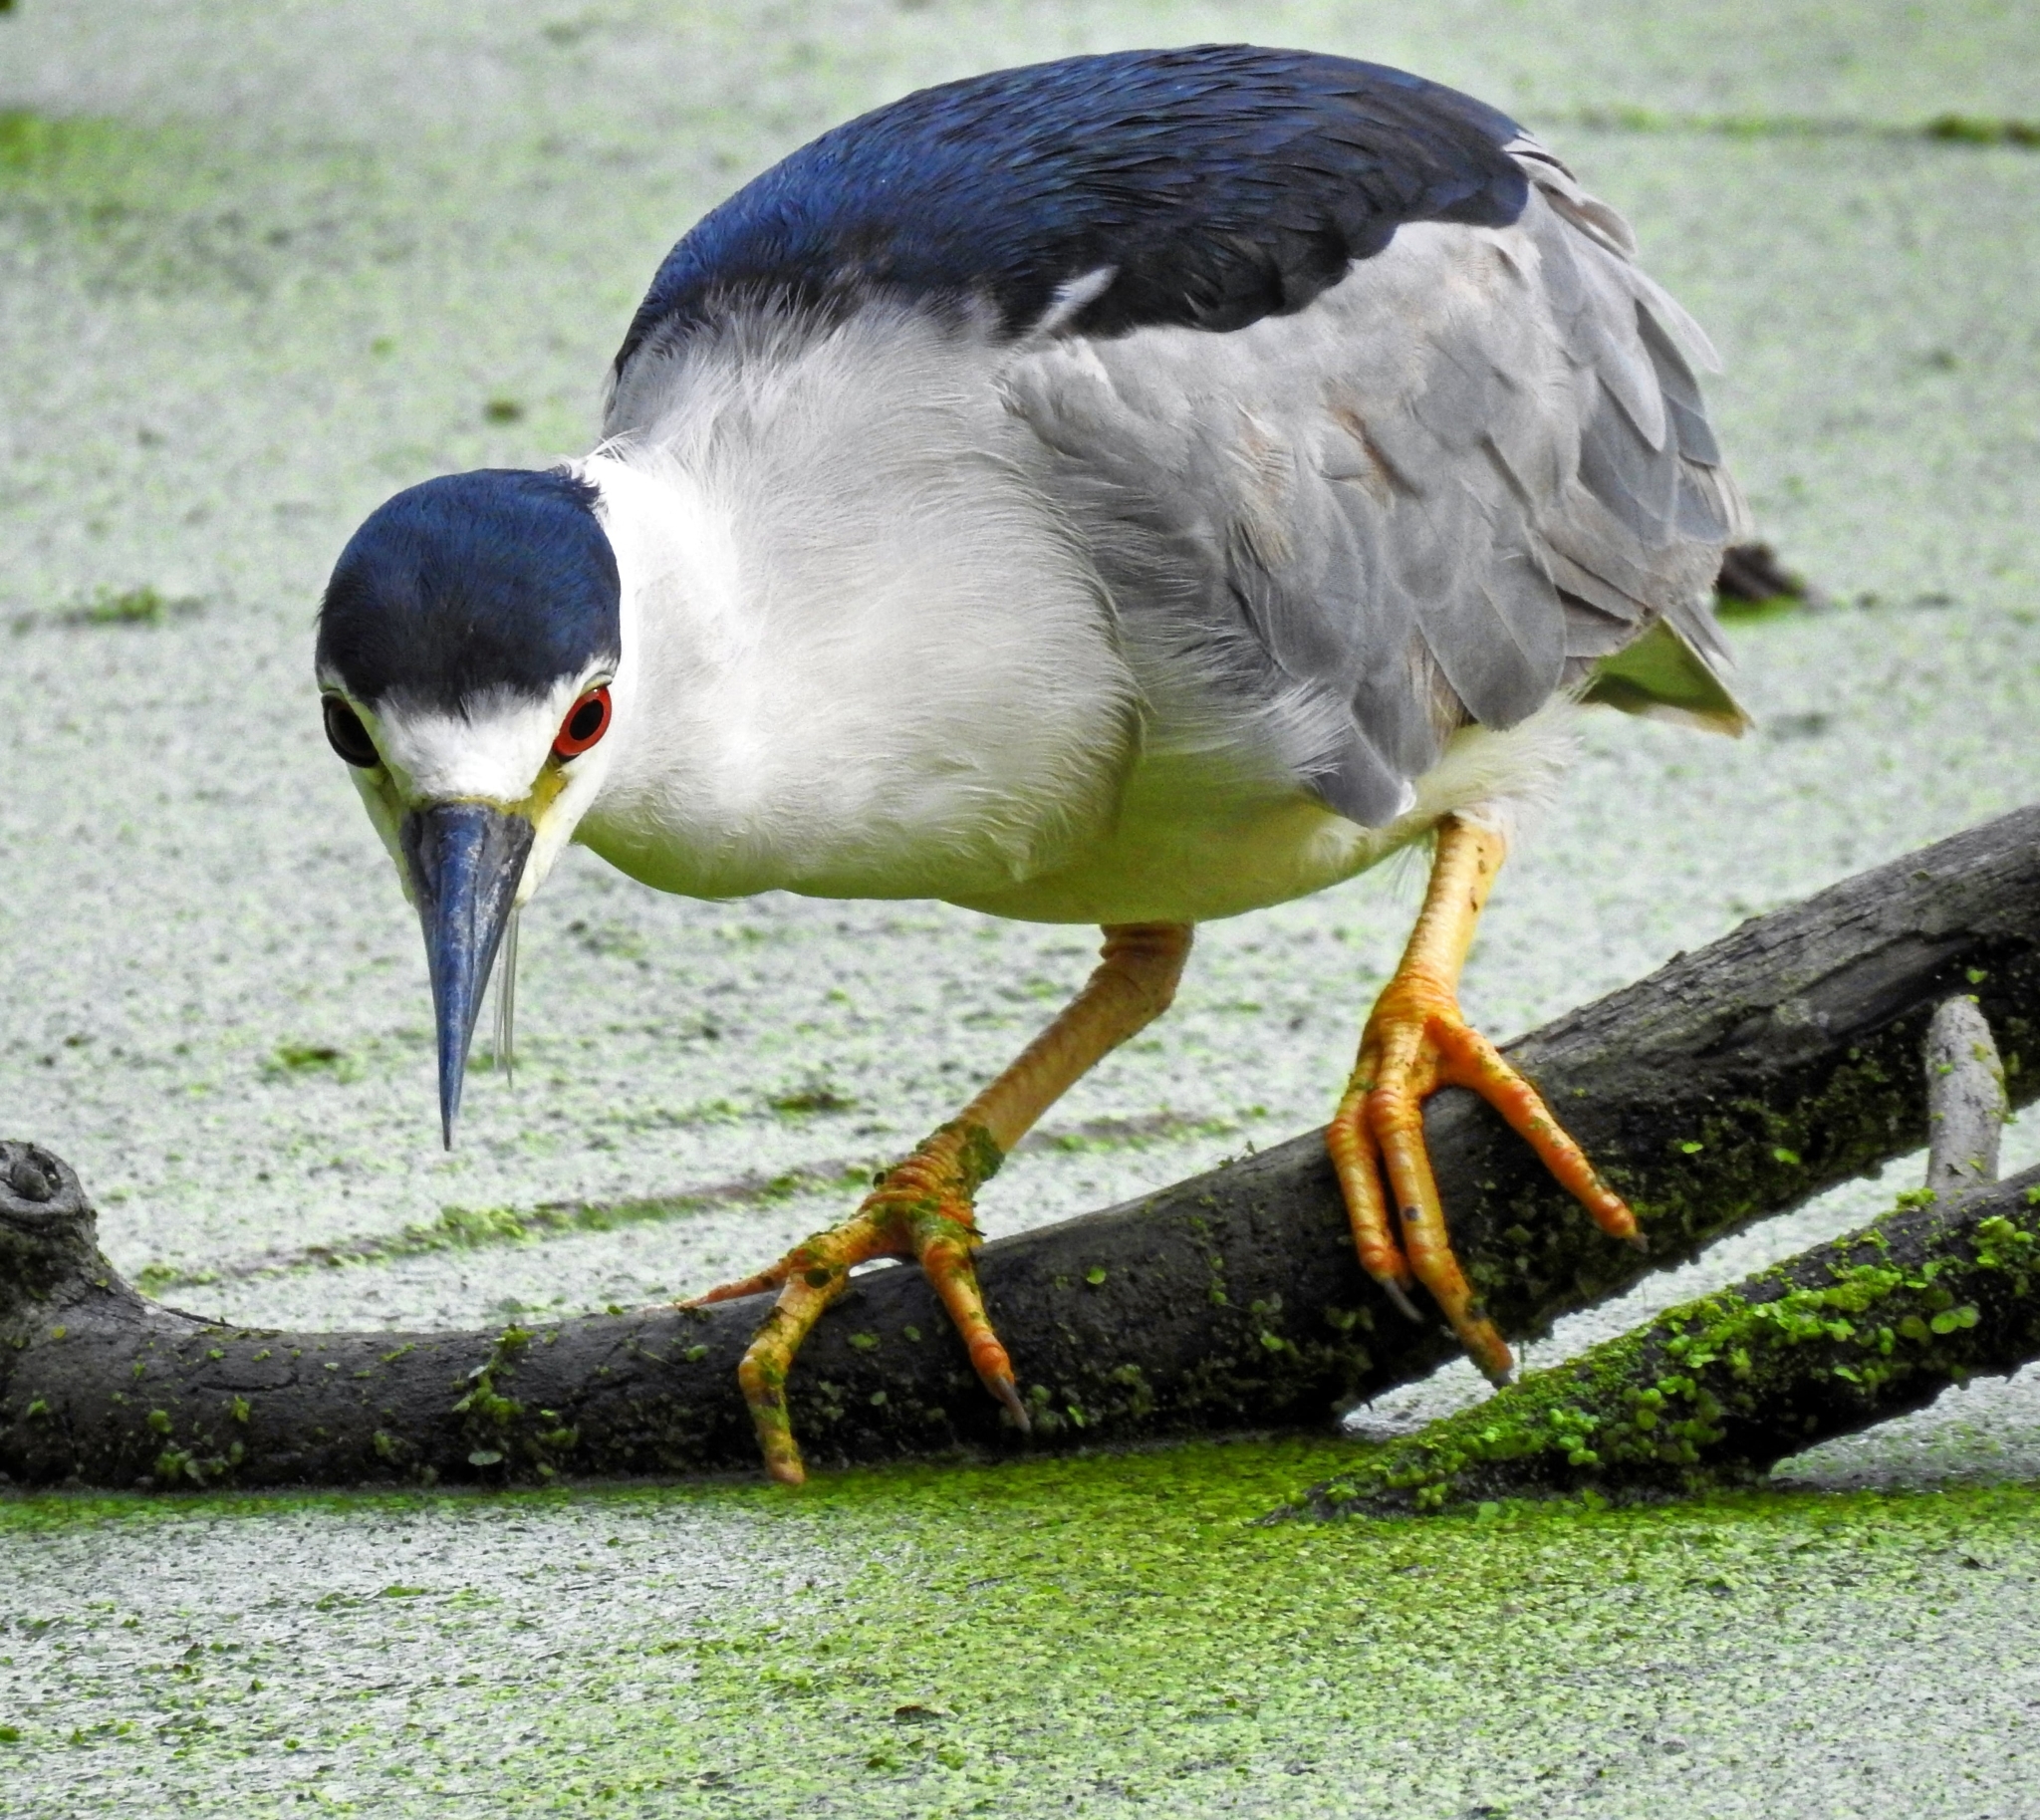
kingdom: Animalia
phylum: Chordata
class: Aves
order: Pelecaniformes
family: Ardeidae
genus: Nycticorax
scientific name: Nycticorax nycticorax
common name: Black-crowned night heron
